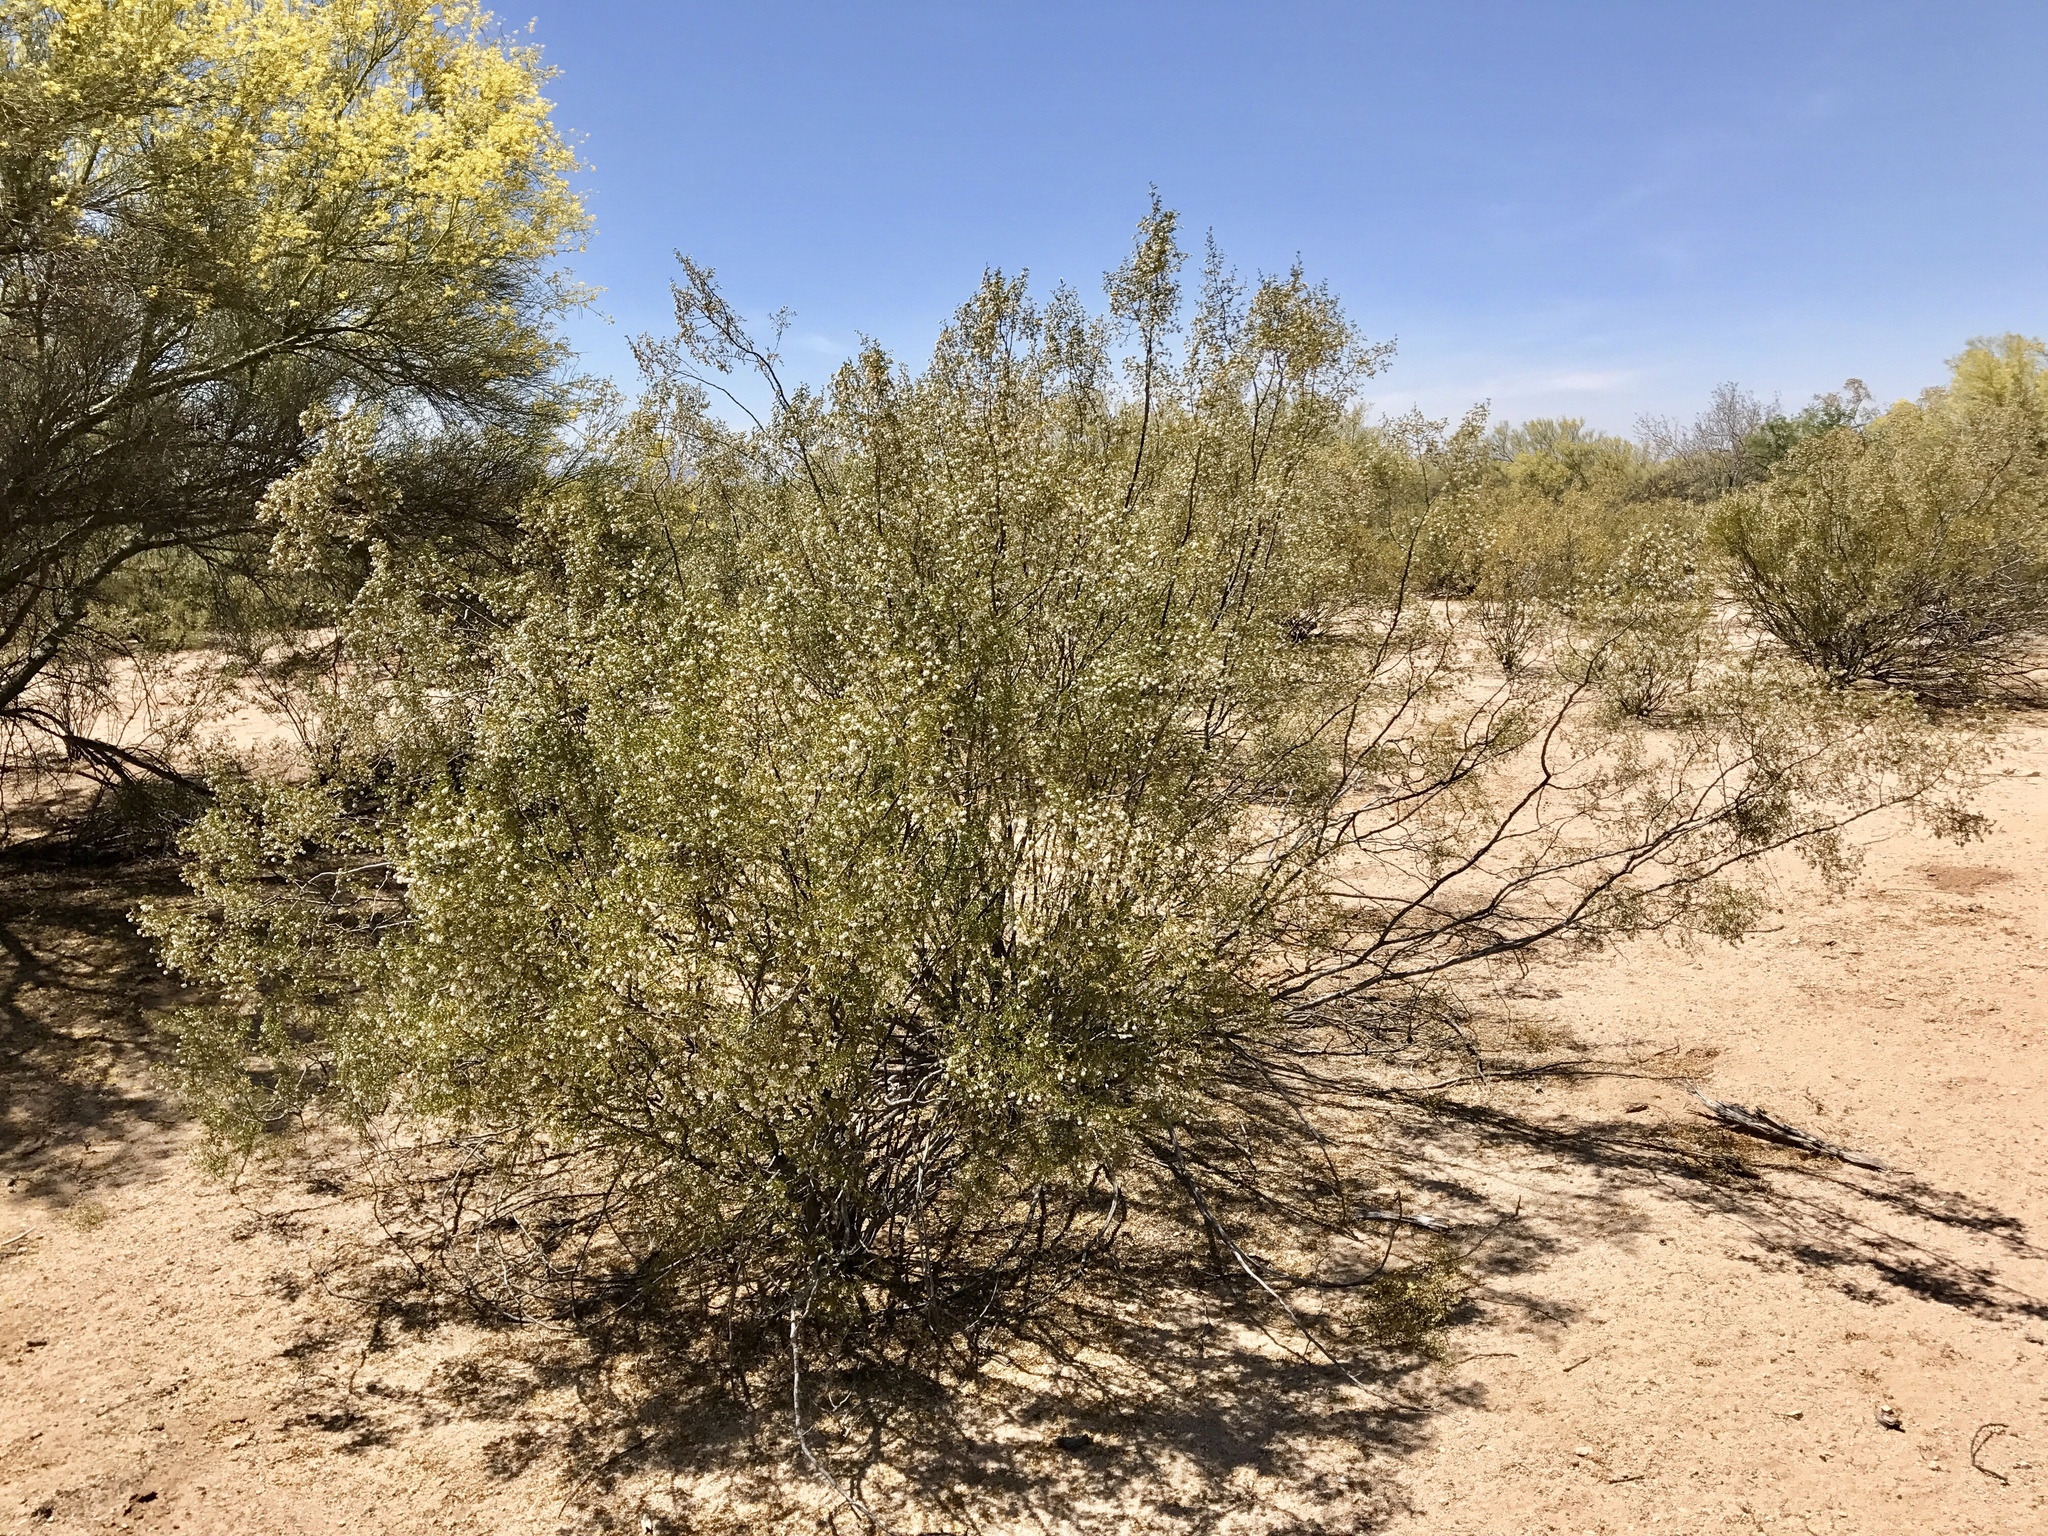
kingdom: Plantae
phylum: Tracheophyta
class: Magnoliopsida
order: Zygophyllales
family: Zygophyllaceae
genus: Larrea
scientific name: Larrea tridentata
